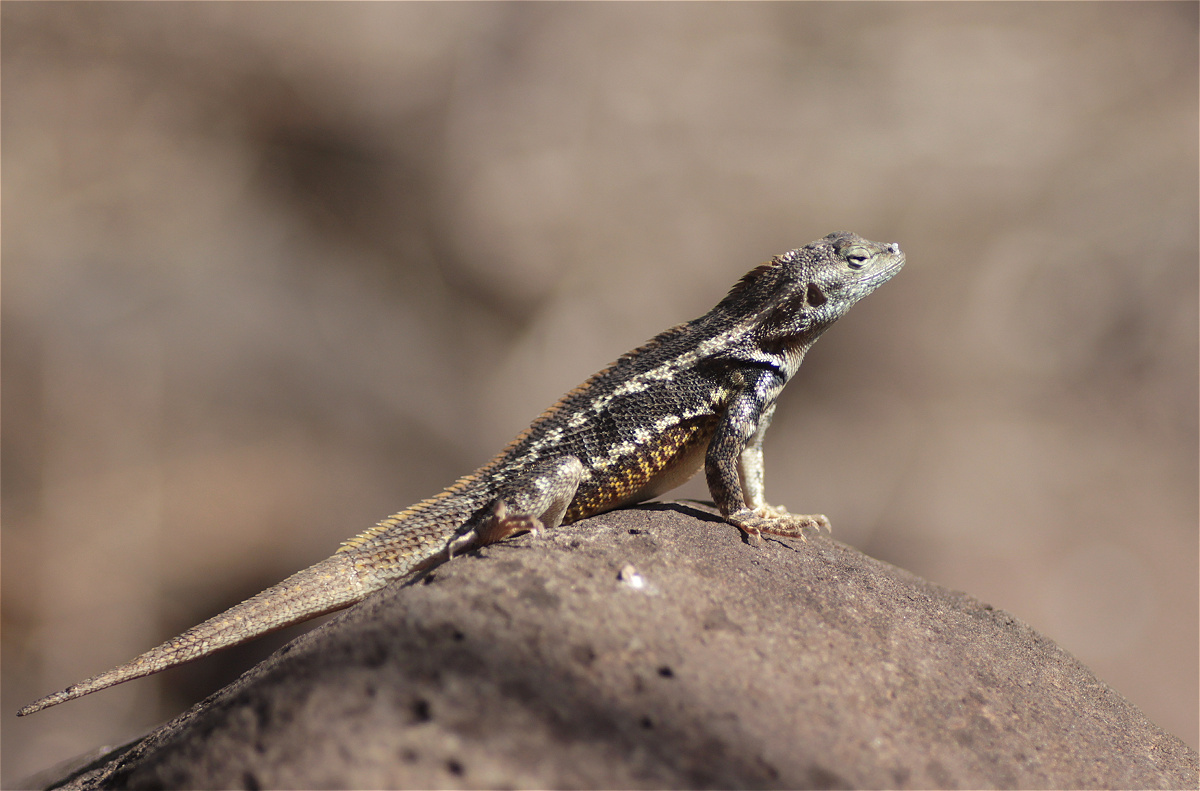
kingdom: Animalia
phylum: Chordata
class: Squamata
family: Tropiduridae
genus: Microlophus
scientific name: Microlophus bivittatus
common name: San cristobal lava lizard
